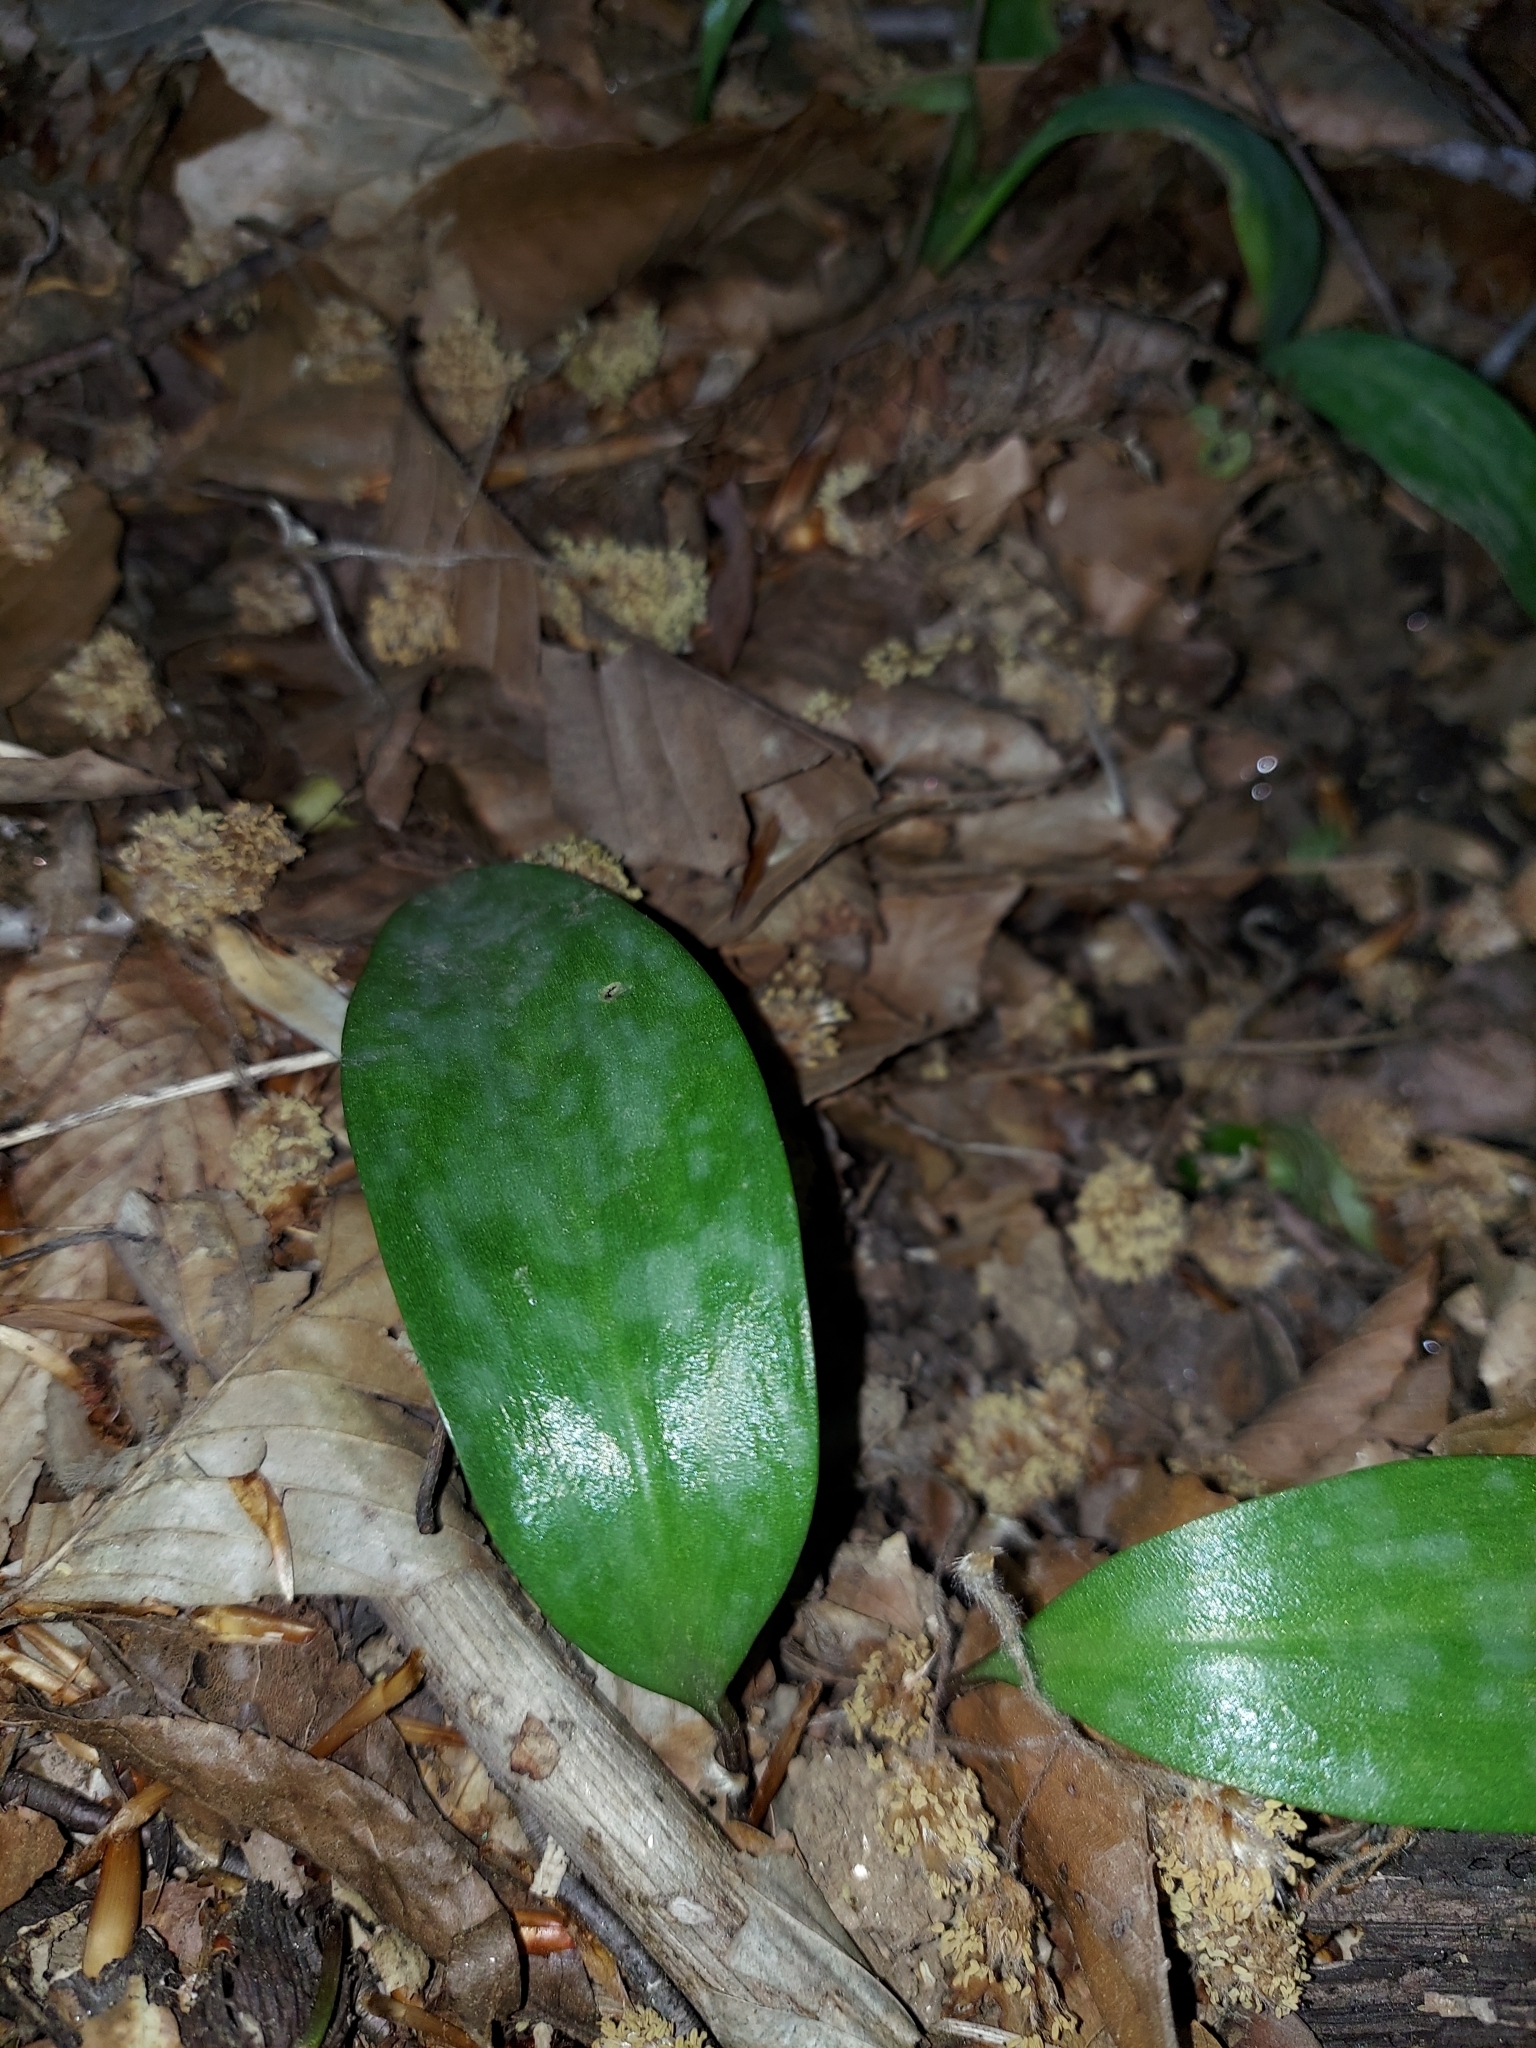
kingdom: Plantae
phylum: Tracheophyta
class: Liliopsida
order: Liliales
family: Liliaceae
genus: Erythronium
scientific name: Erythronium americanum
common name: Yellow adder's-tongue
